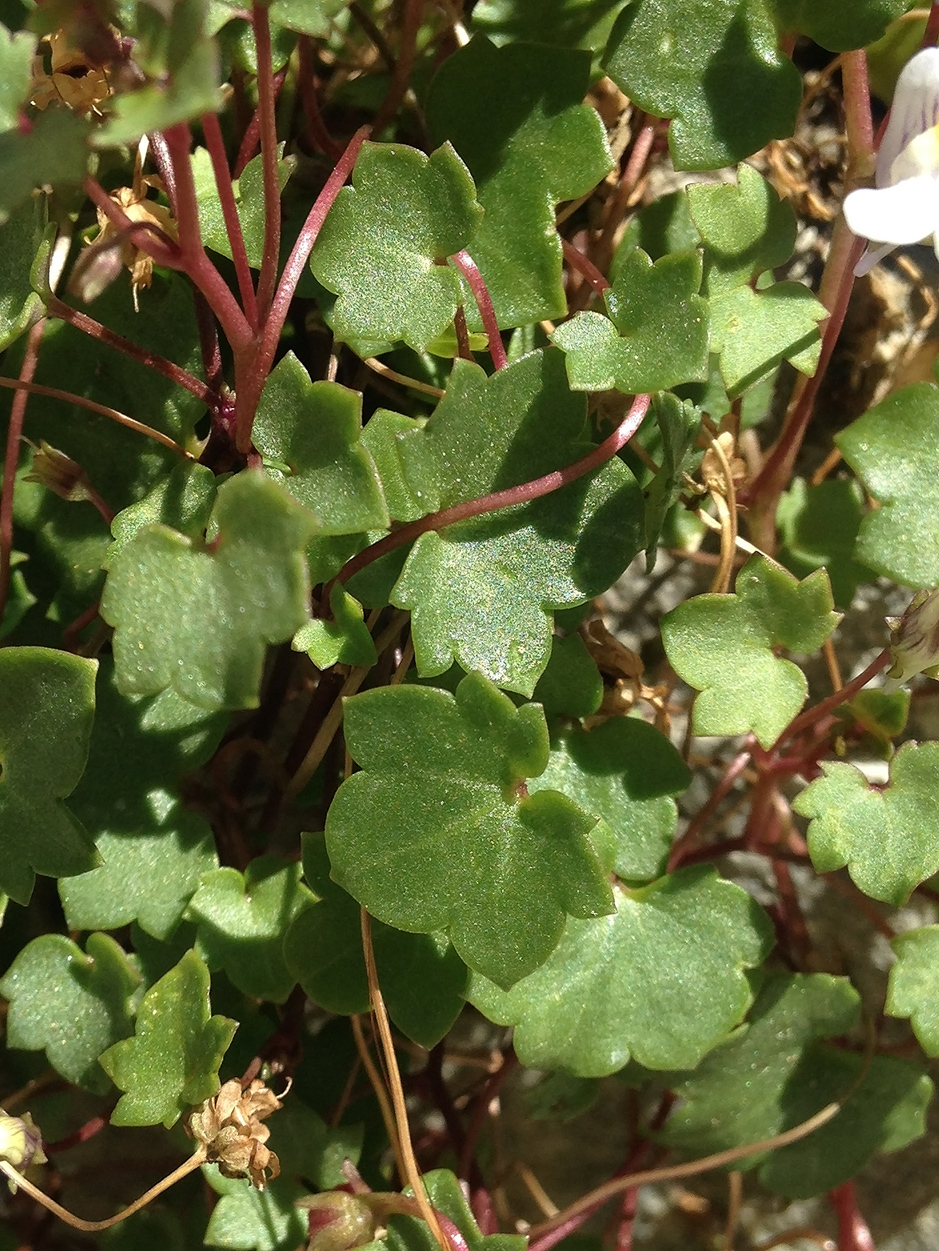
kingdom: Plantae
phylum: Tracheophyta
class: Magnoliopsida
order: Lamiales
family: Plantaginaceae
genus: Cymbalaria
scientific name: Cymbalaria muralis
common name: Ivy-leaved toadflax
